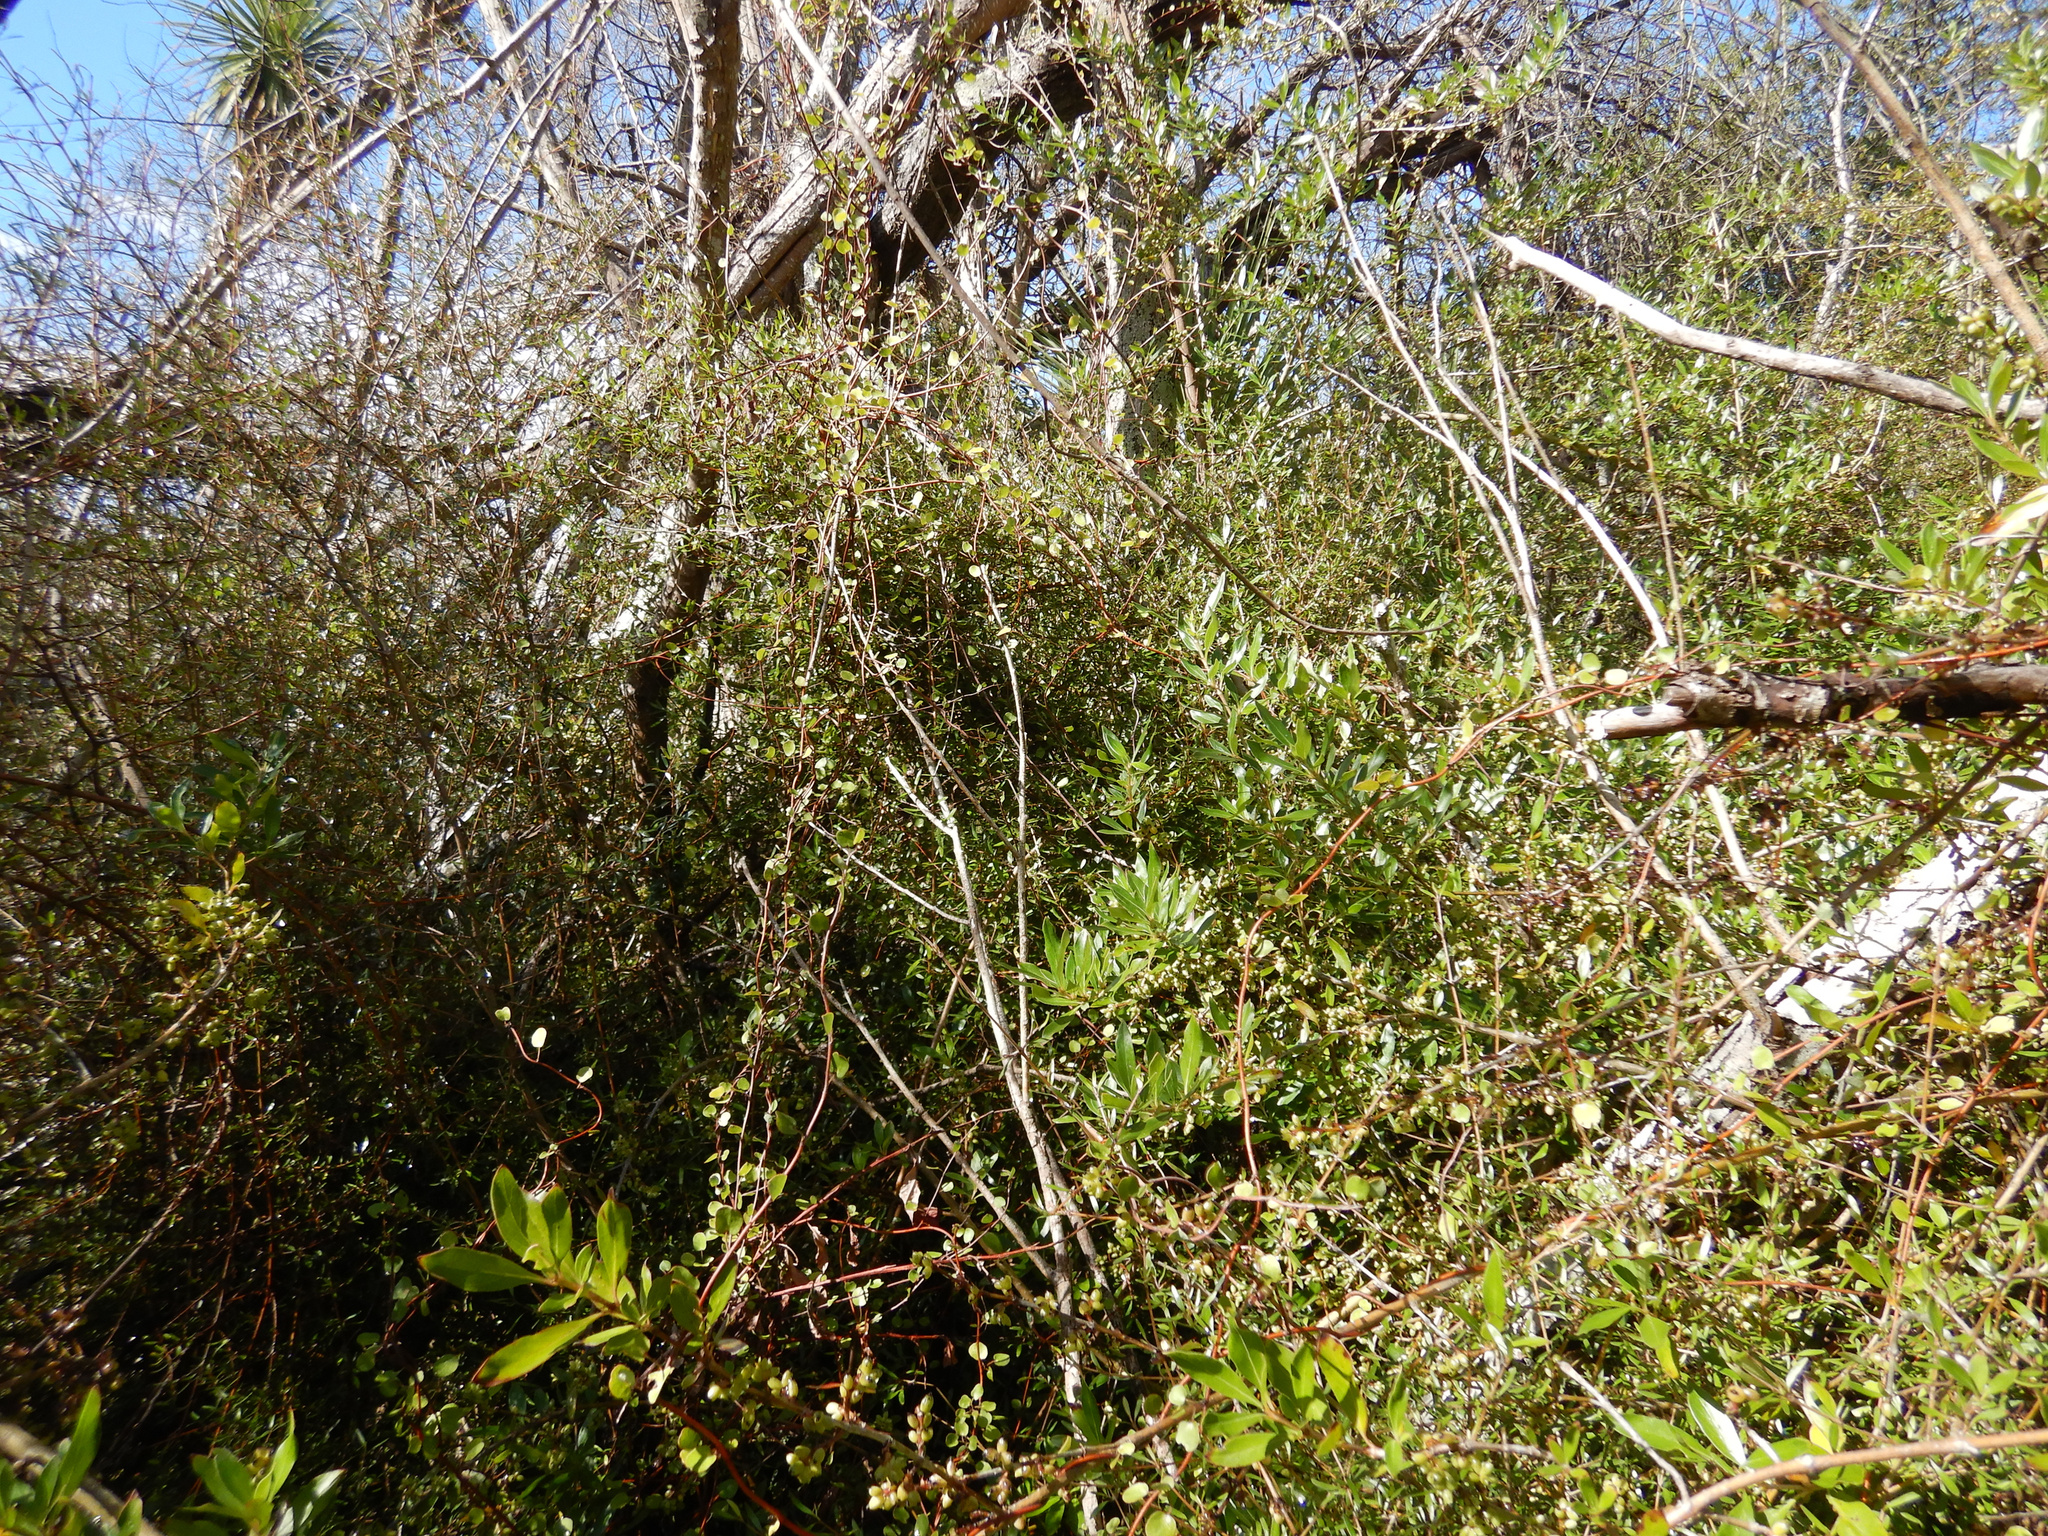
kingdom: Plantae
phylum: Tracheophyta
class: Magnoliopsida
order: Caryophyllales
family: Polygonaceae
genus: Muehlenbeckia
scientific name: Muehlenbeckia complexa
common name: Wireplant
